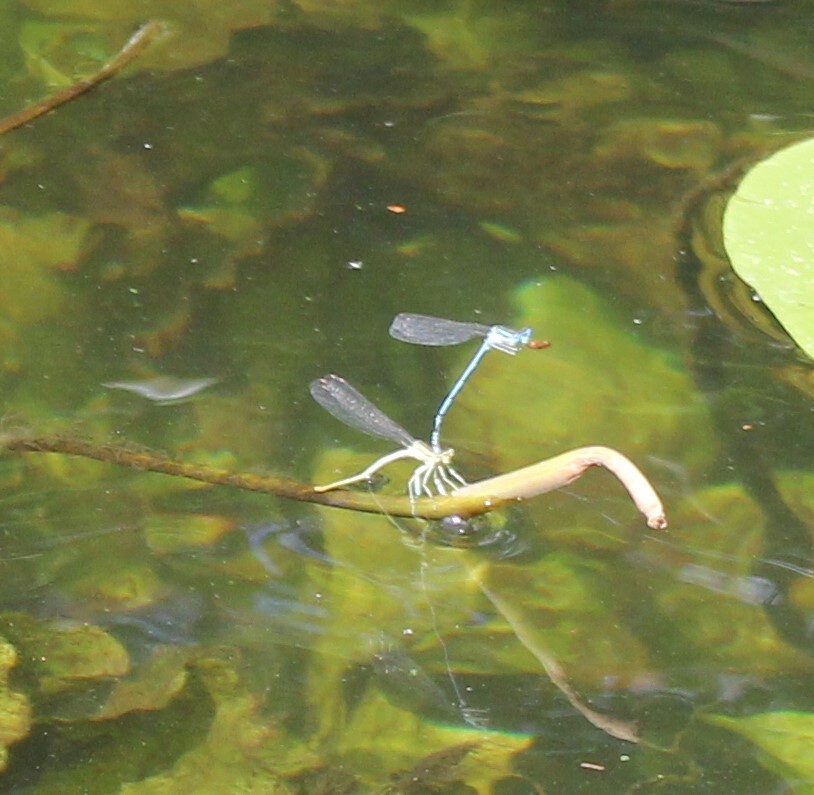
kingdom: Animalia
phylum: Arthropoda
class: Insecta
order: Odonata
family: Platycnemididae
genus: Platycnemis
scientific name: Platycnemis pennipes
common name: White-legged damselfly
